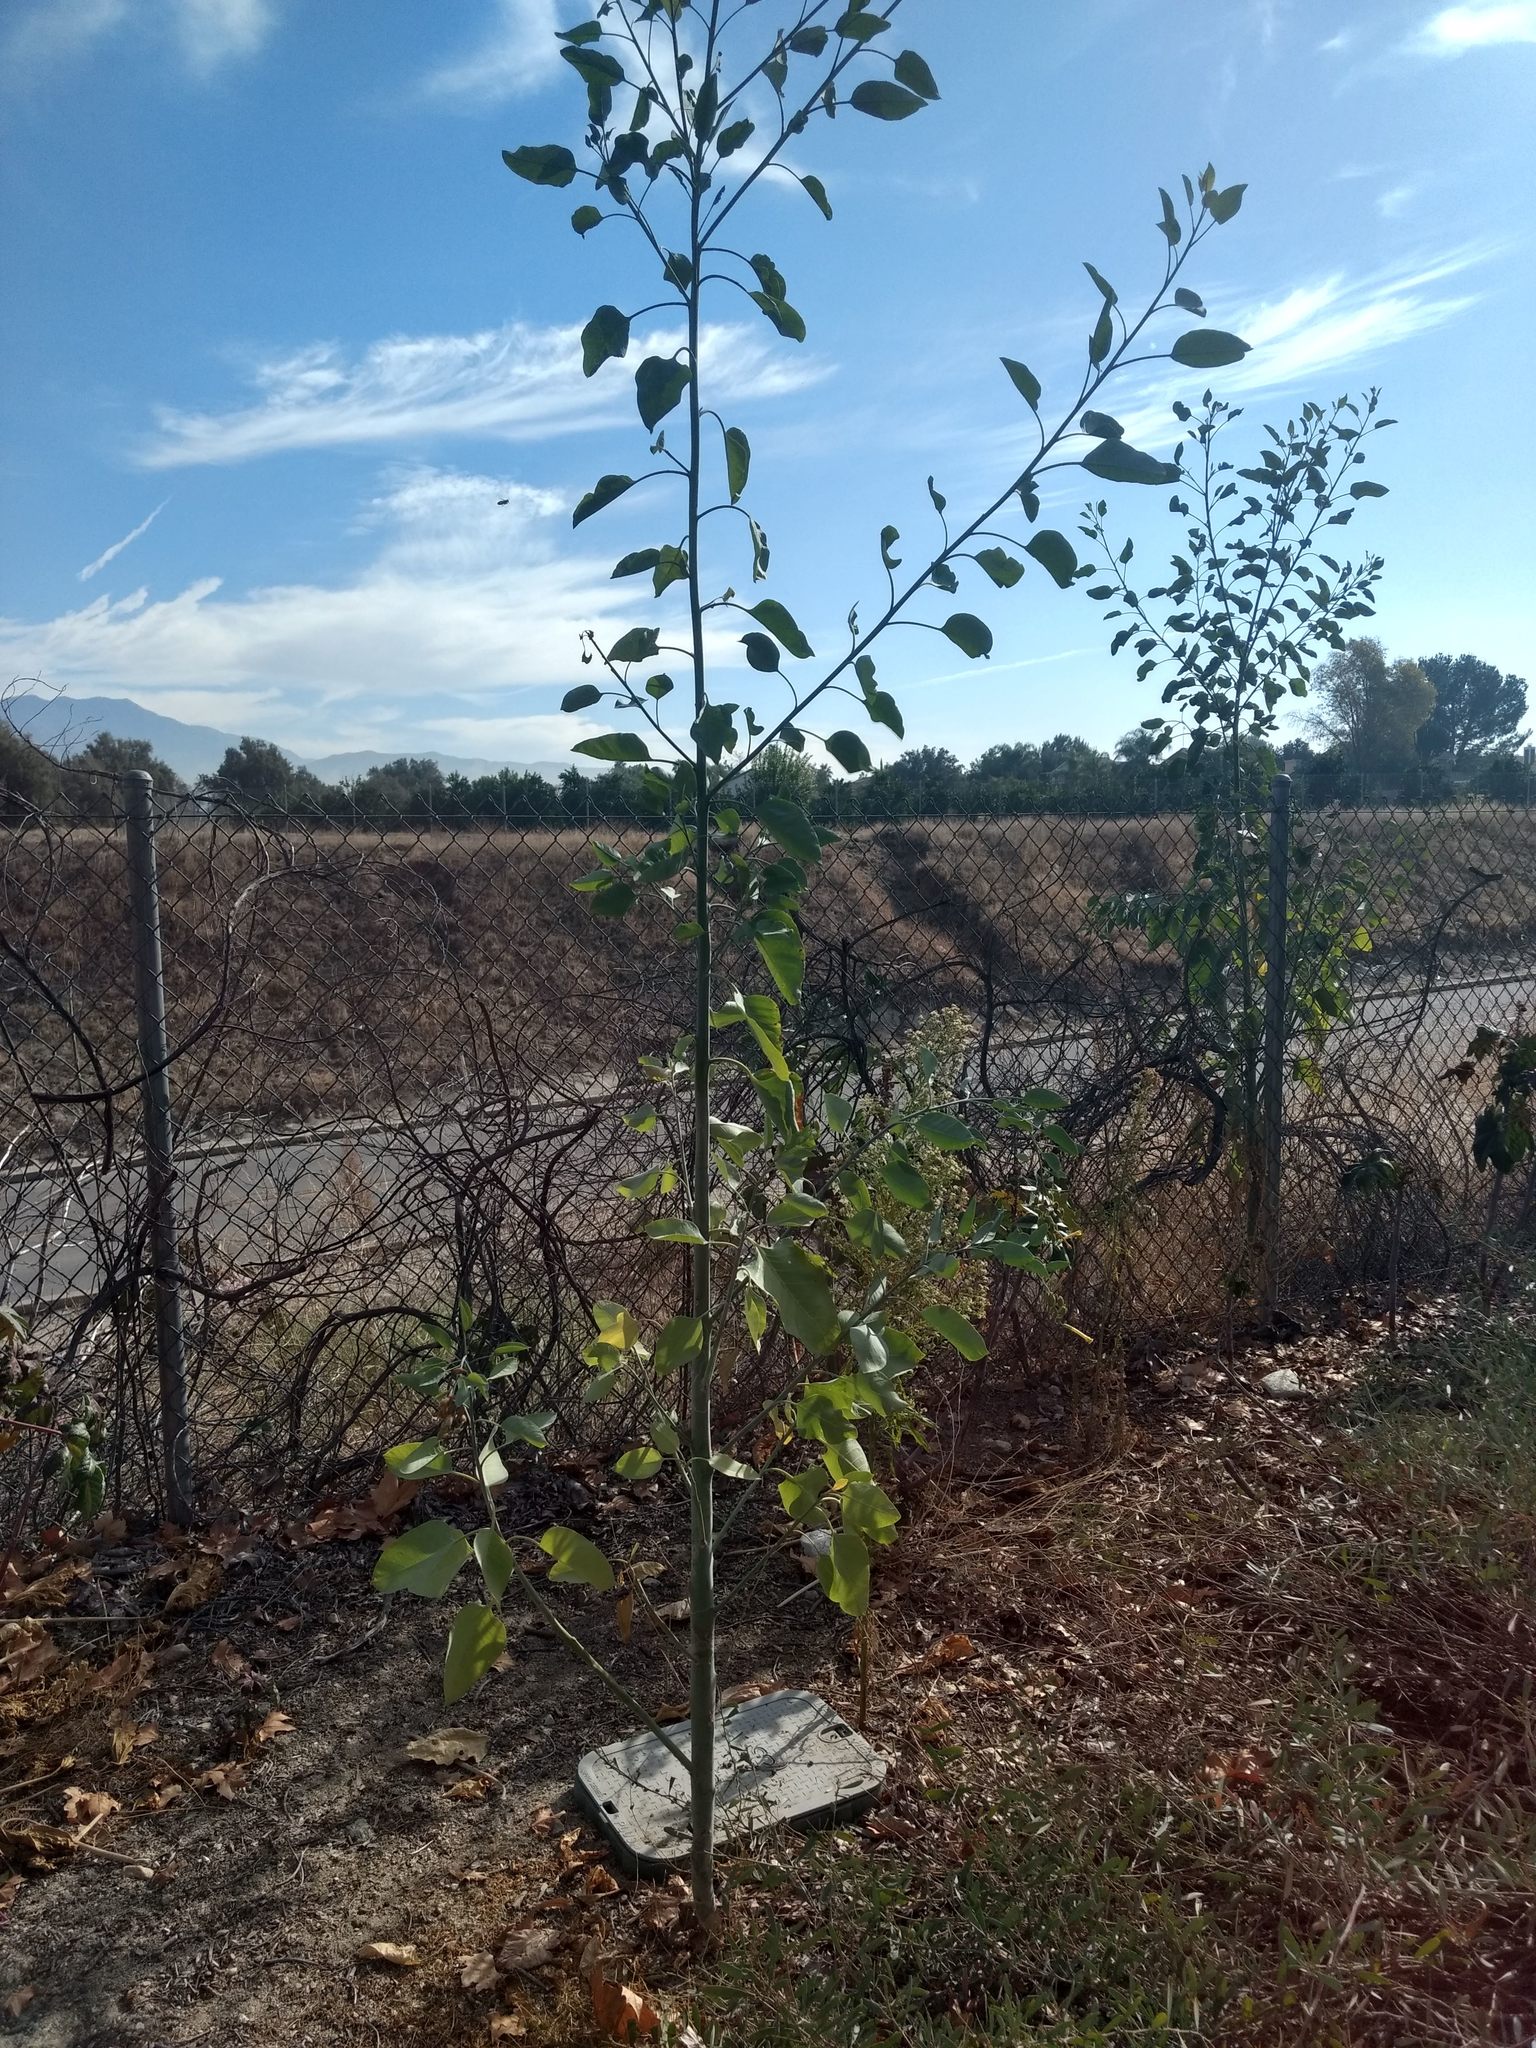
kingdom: Plantae
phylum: Tracheophyta
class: Magnoliopsida
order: Solanales
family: Solanaceae
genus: Nicotiana
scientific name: Nicotiana glauca
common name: Tree tobacco
